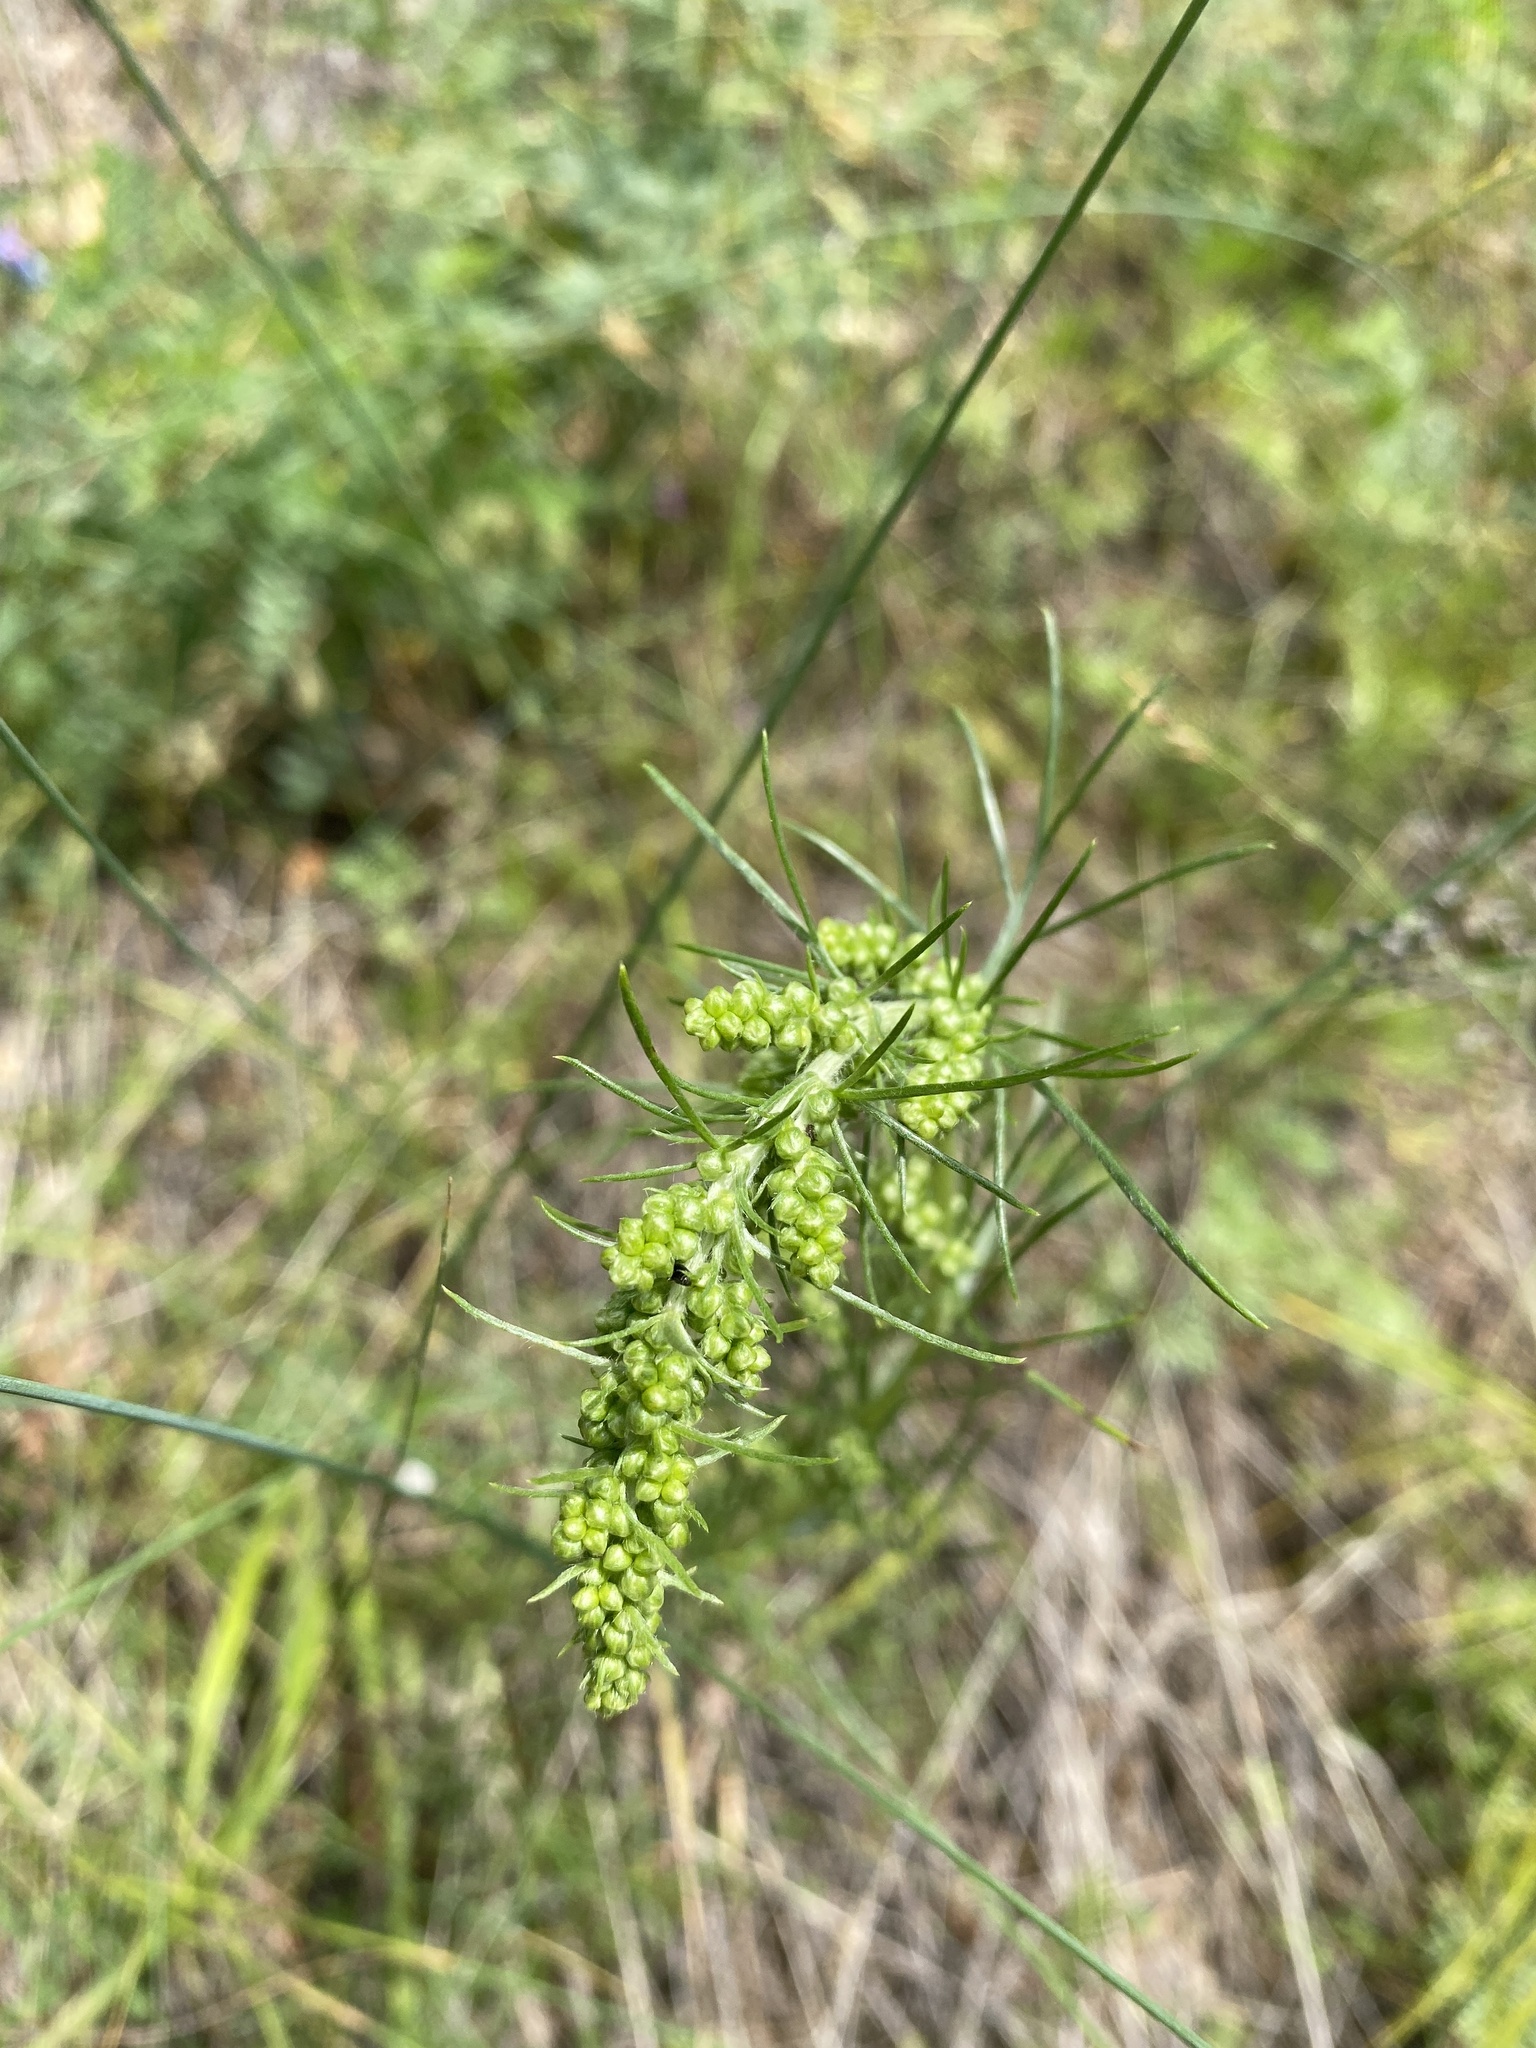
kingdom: Plantae
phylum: Tracheophyta
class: Magnoliopsida
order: Asterales
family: Asteraceae
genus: Artemisia
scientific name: Artemisia pubescens
